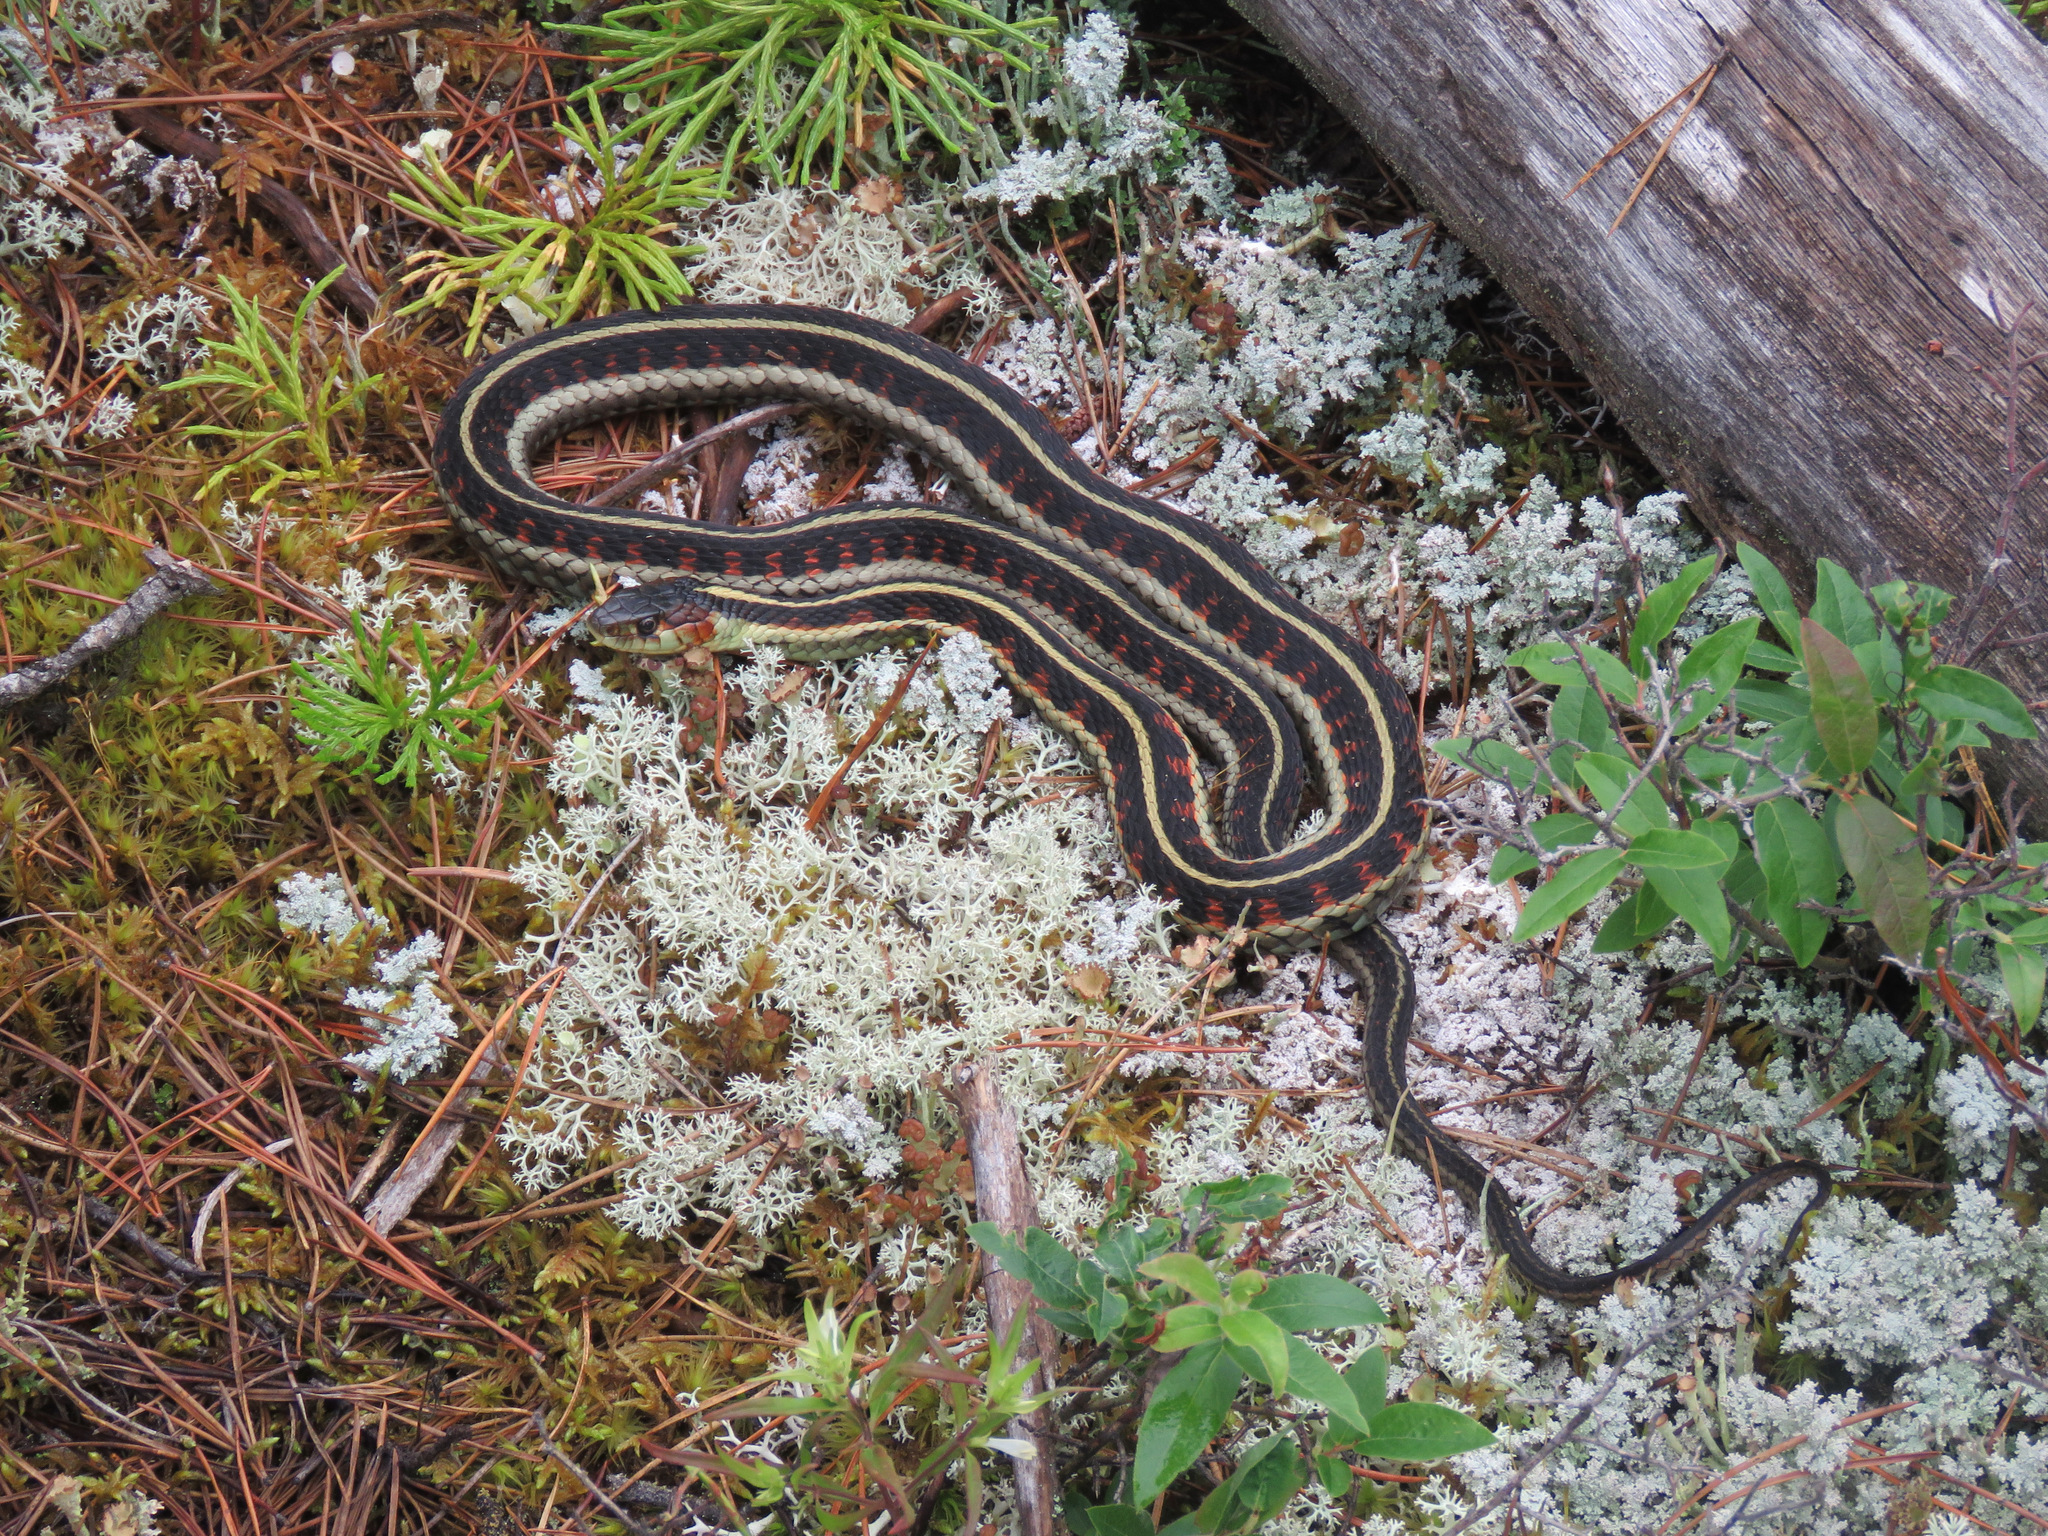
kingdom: Animalia
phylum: Chordata
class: Squamata
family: Colubridae
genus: Thamnophis
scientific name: Thamnophis sirtalis
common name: Common garter snake
